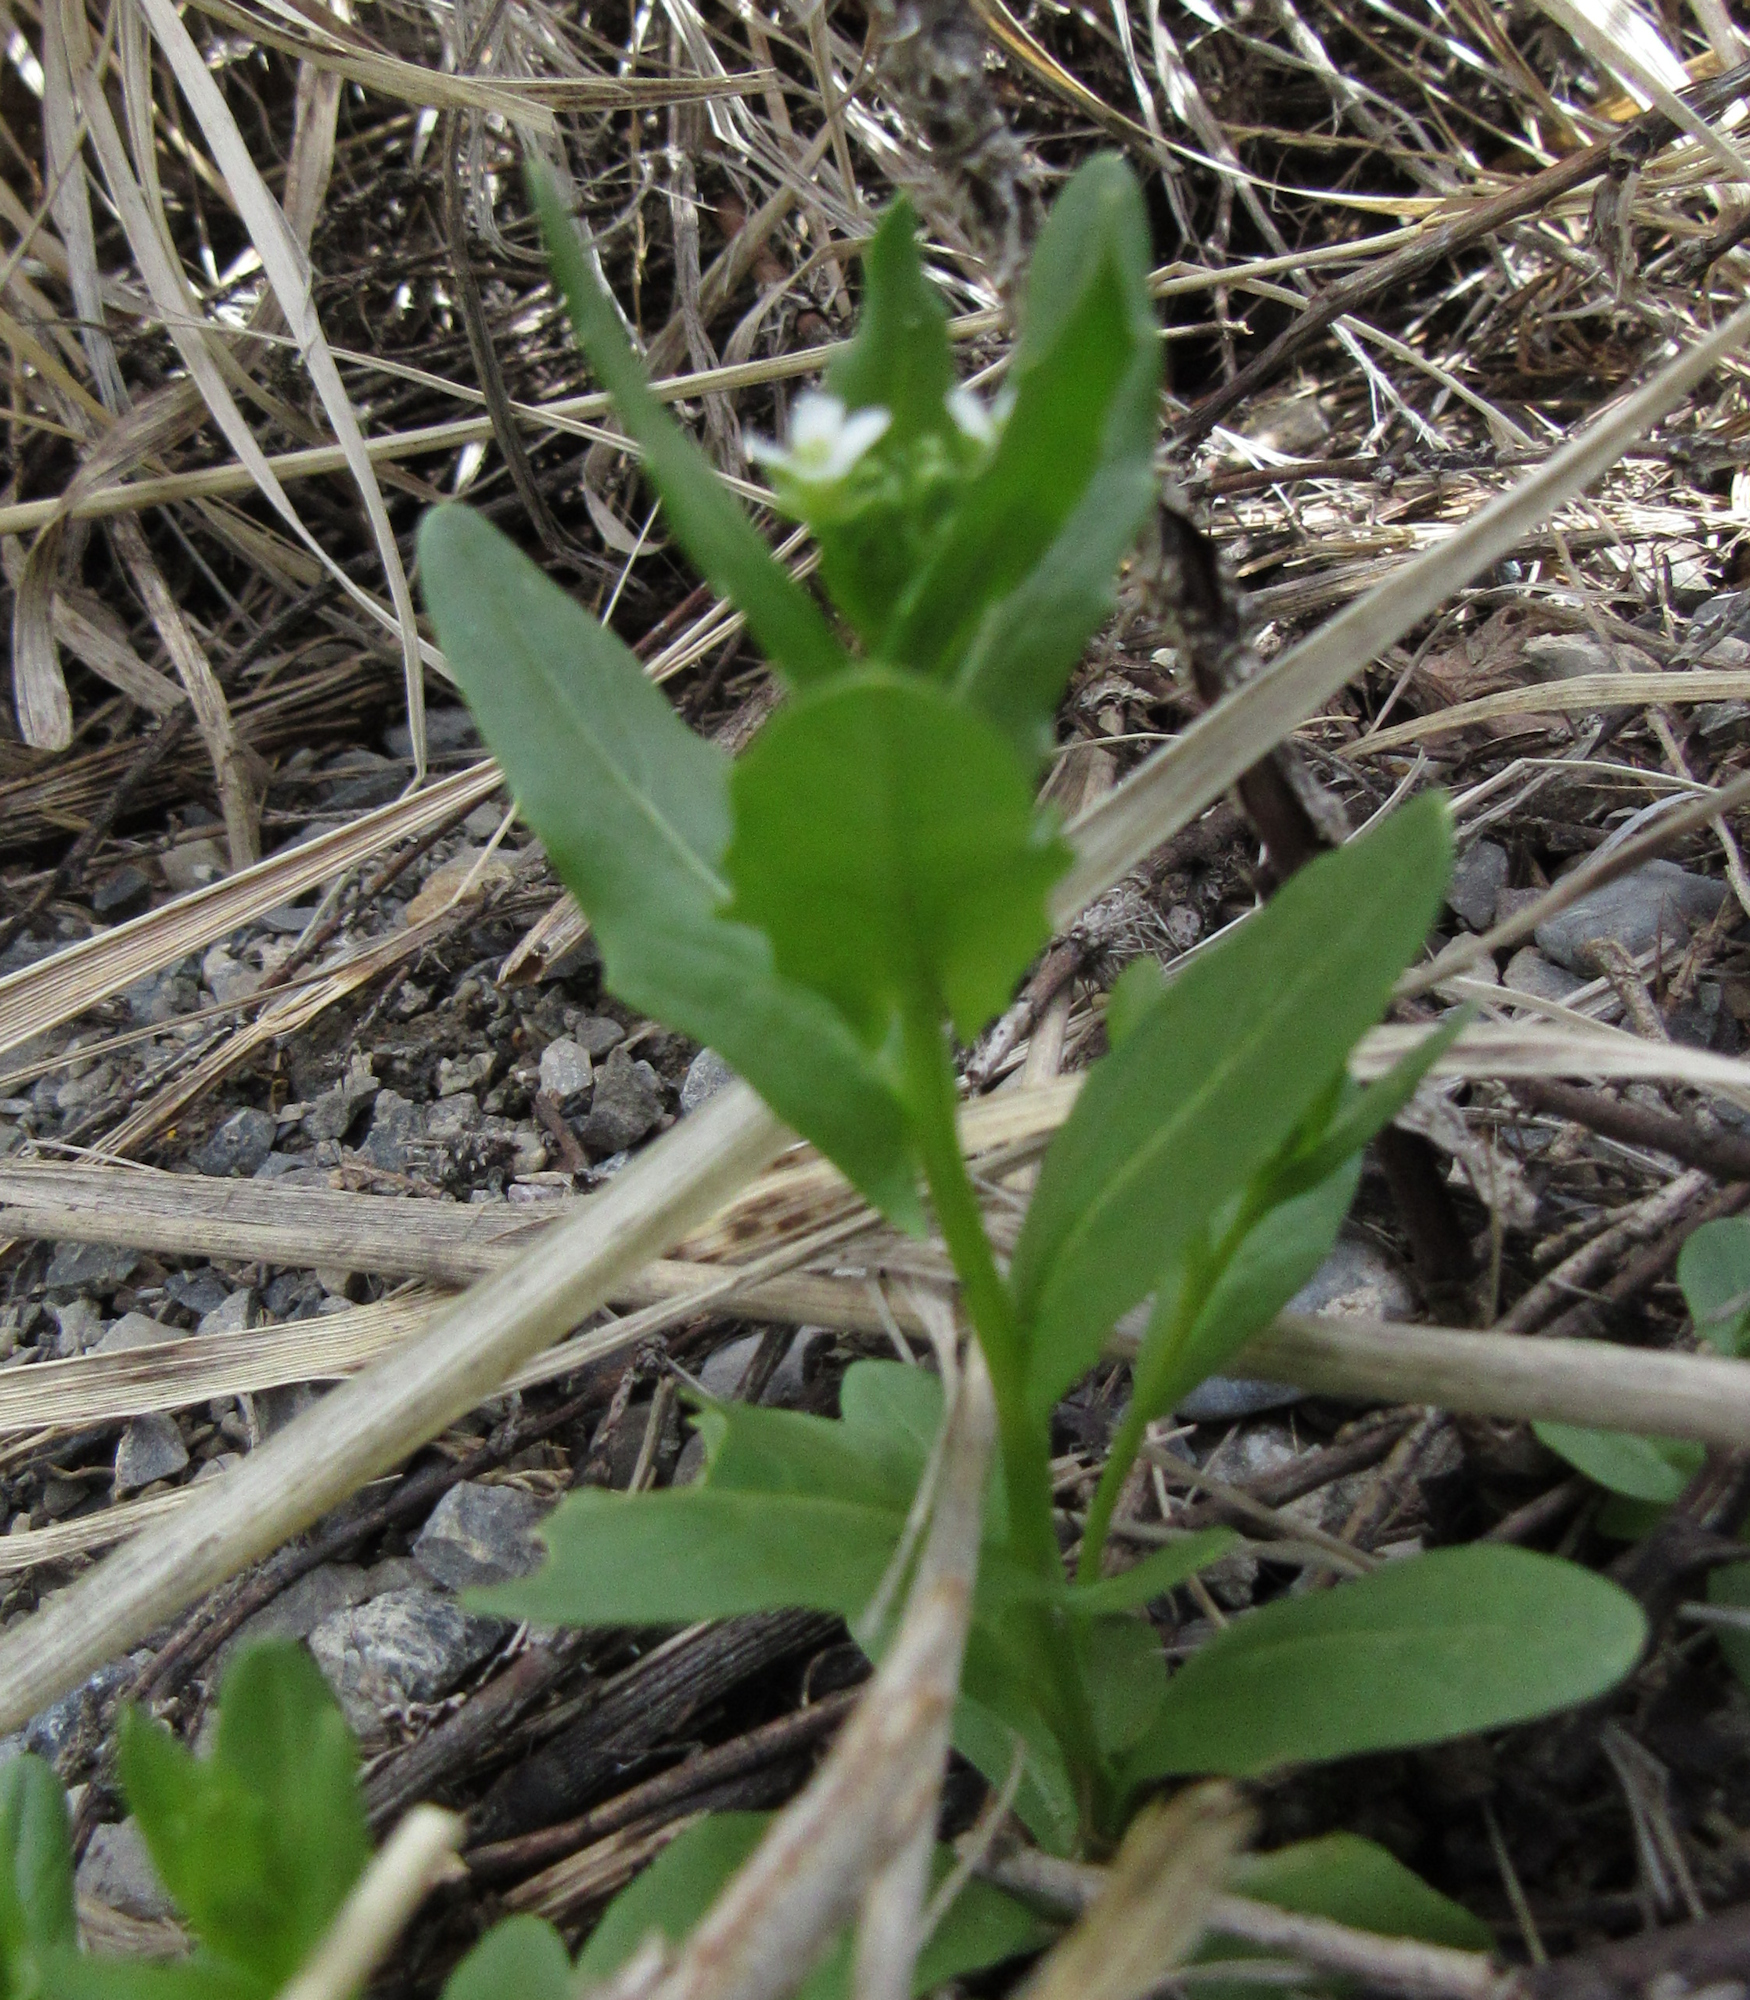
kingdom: Plantae
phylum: Tracheophyta
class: Magnoliopsida
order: Brassicales
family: Brassicaceae
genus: Thlaspi
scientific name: Thlaspi arvense
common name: Field pennycress
